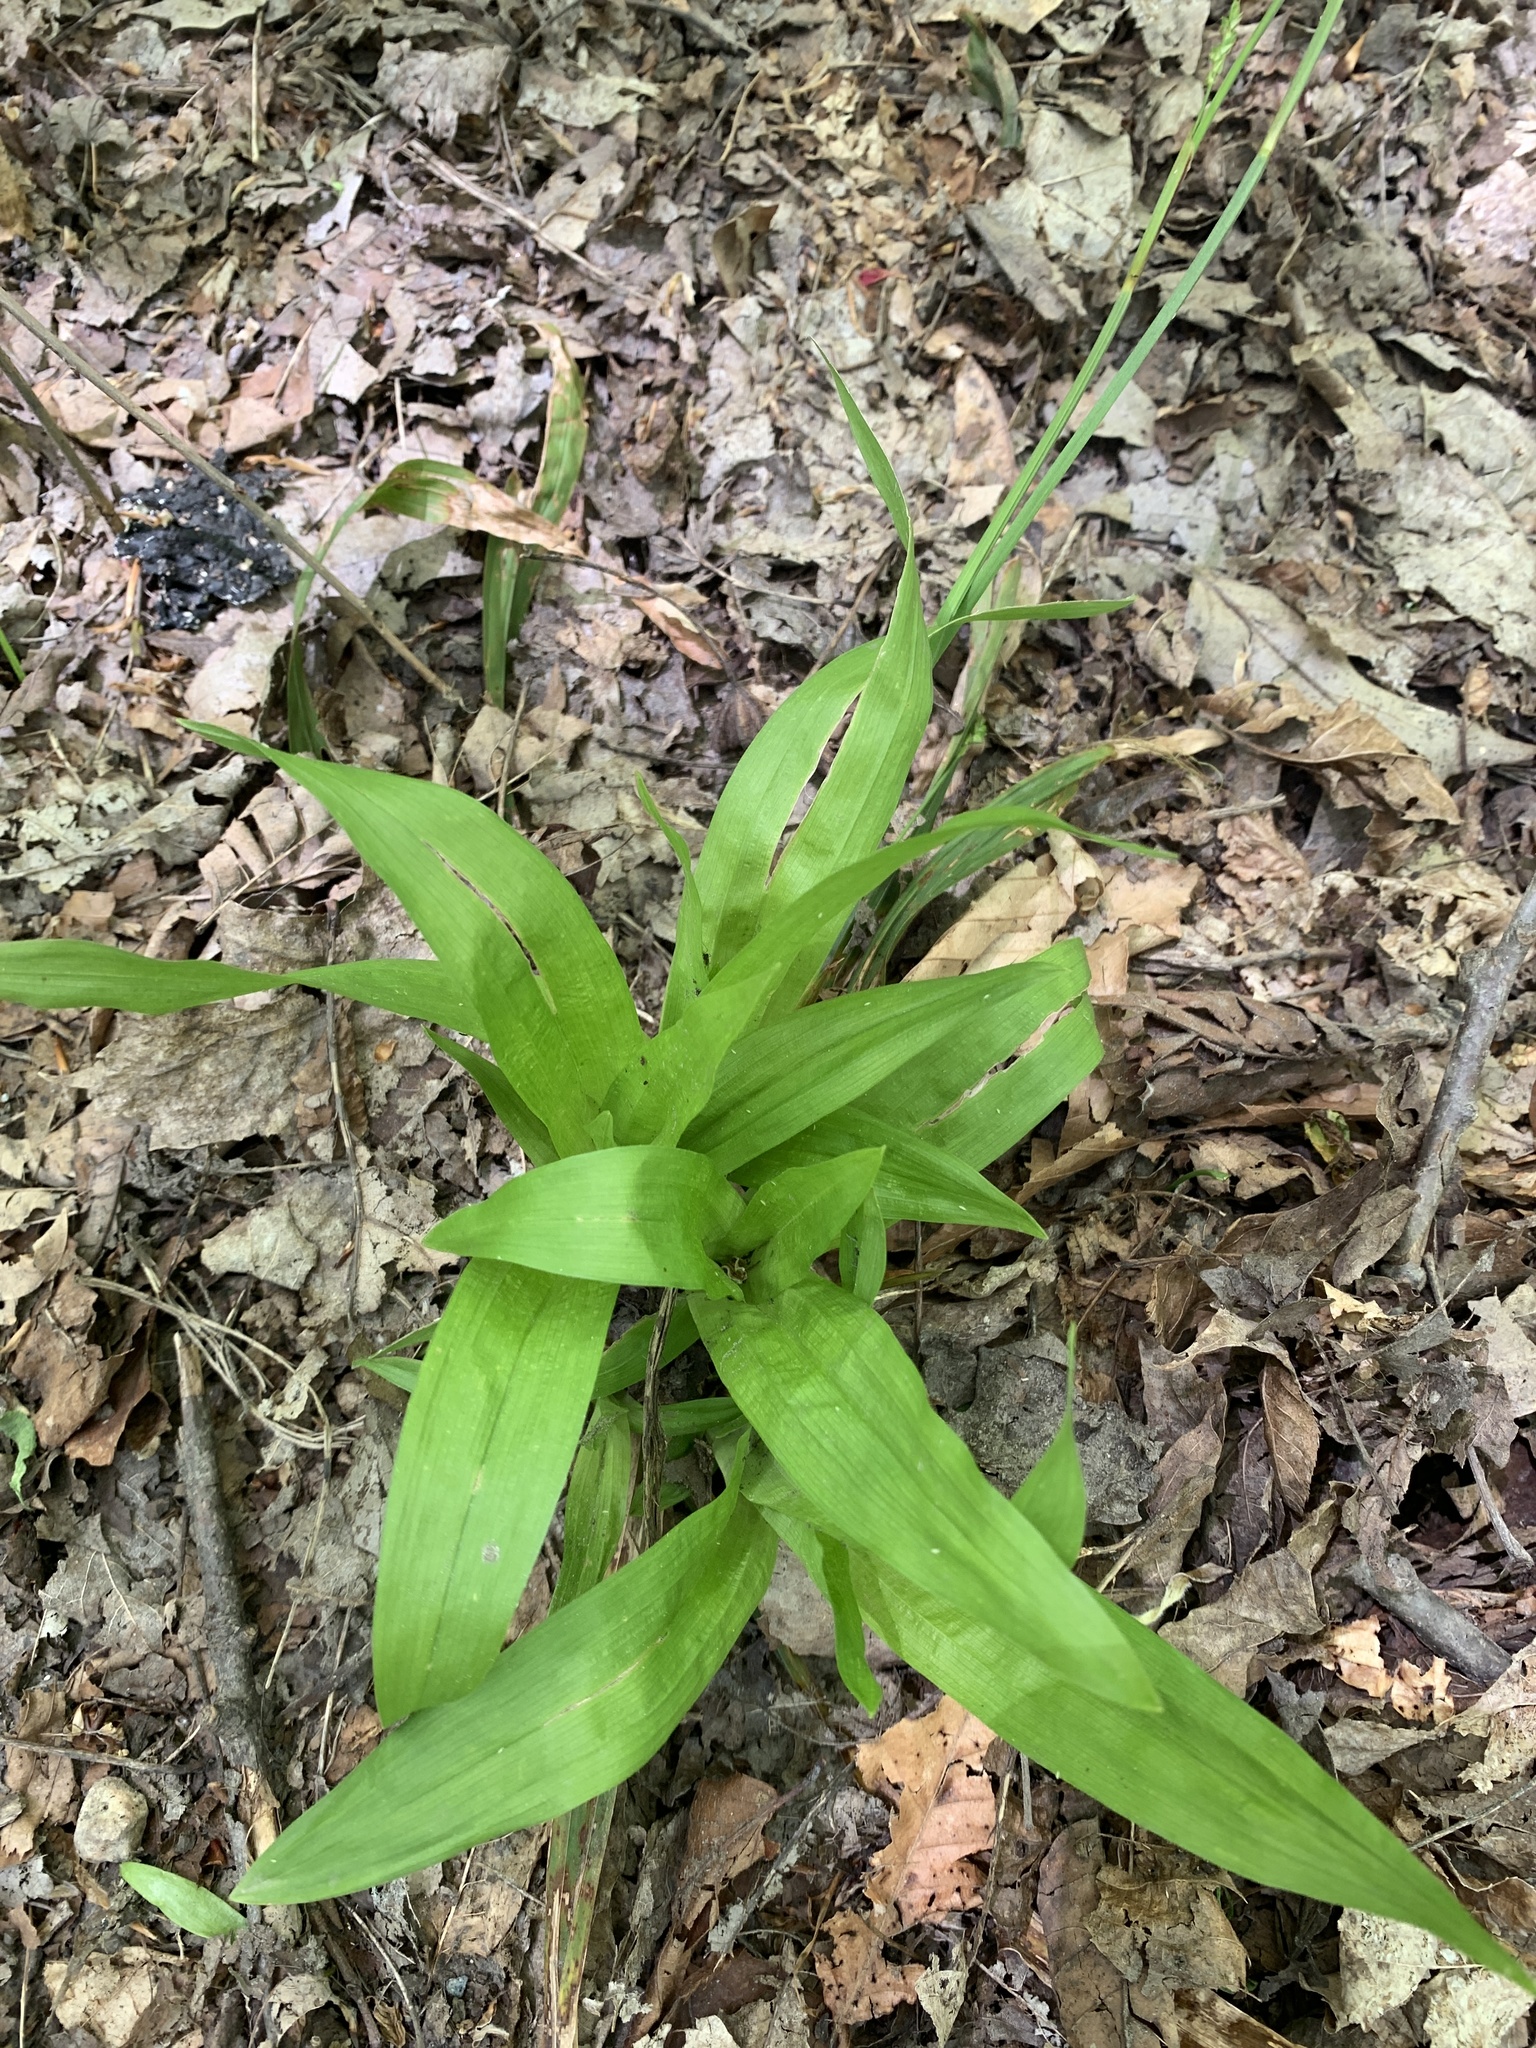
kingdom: Plantae
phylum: Tracheophyta
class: Liliopsida
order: Poales
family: Cyperaceae
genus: Carex
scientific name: Carex plantaginea
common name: Plantain-leaved sedge
